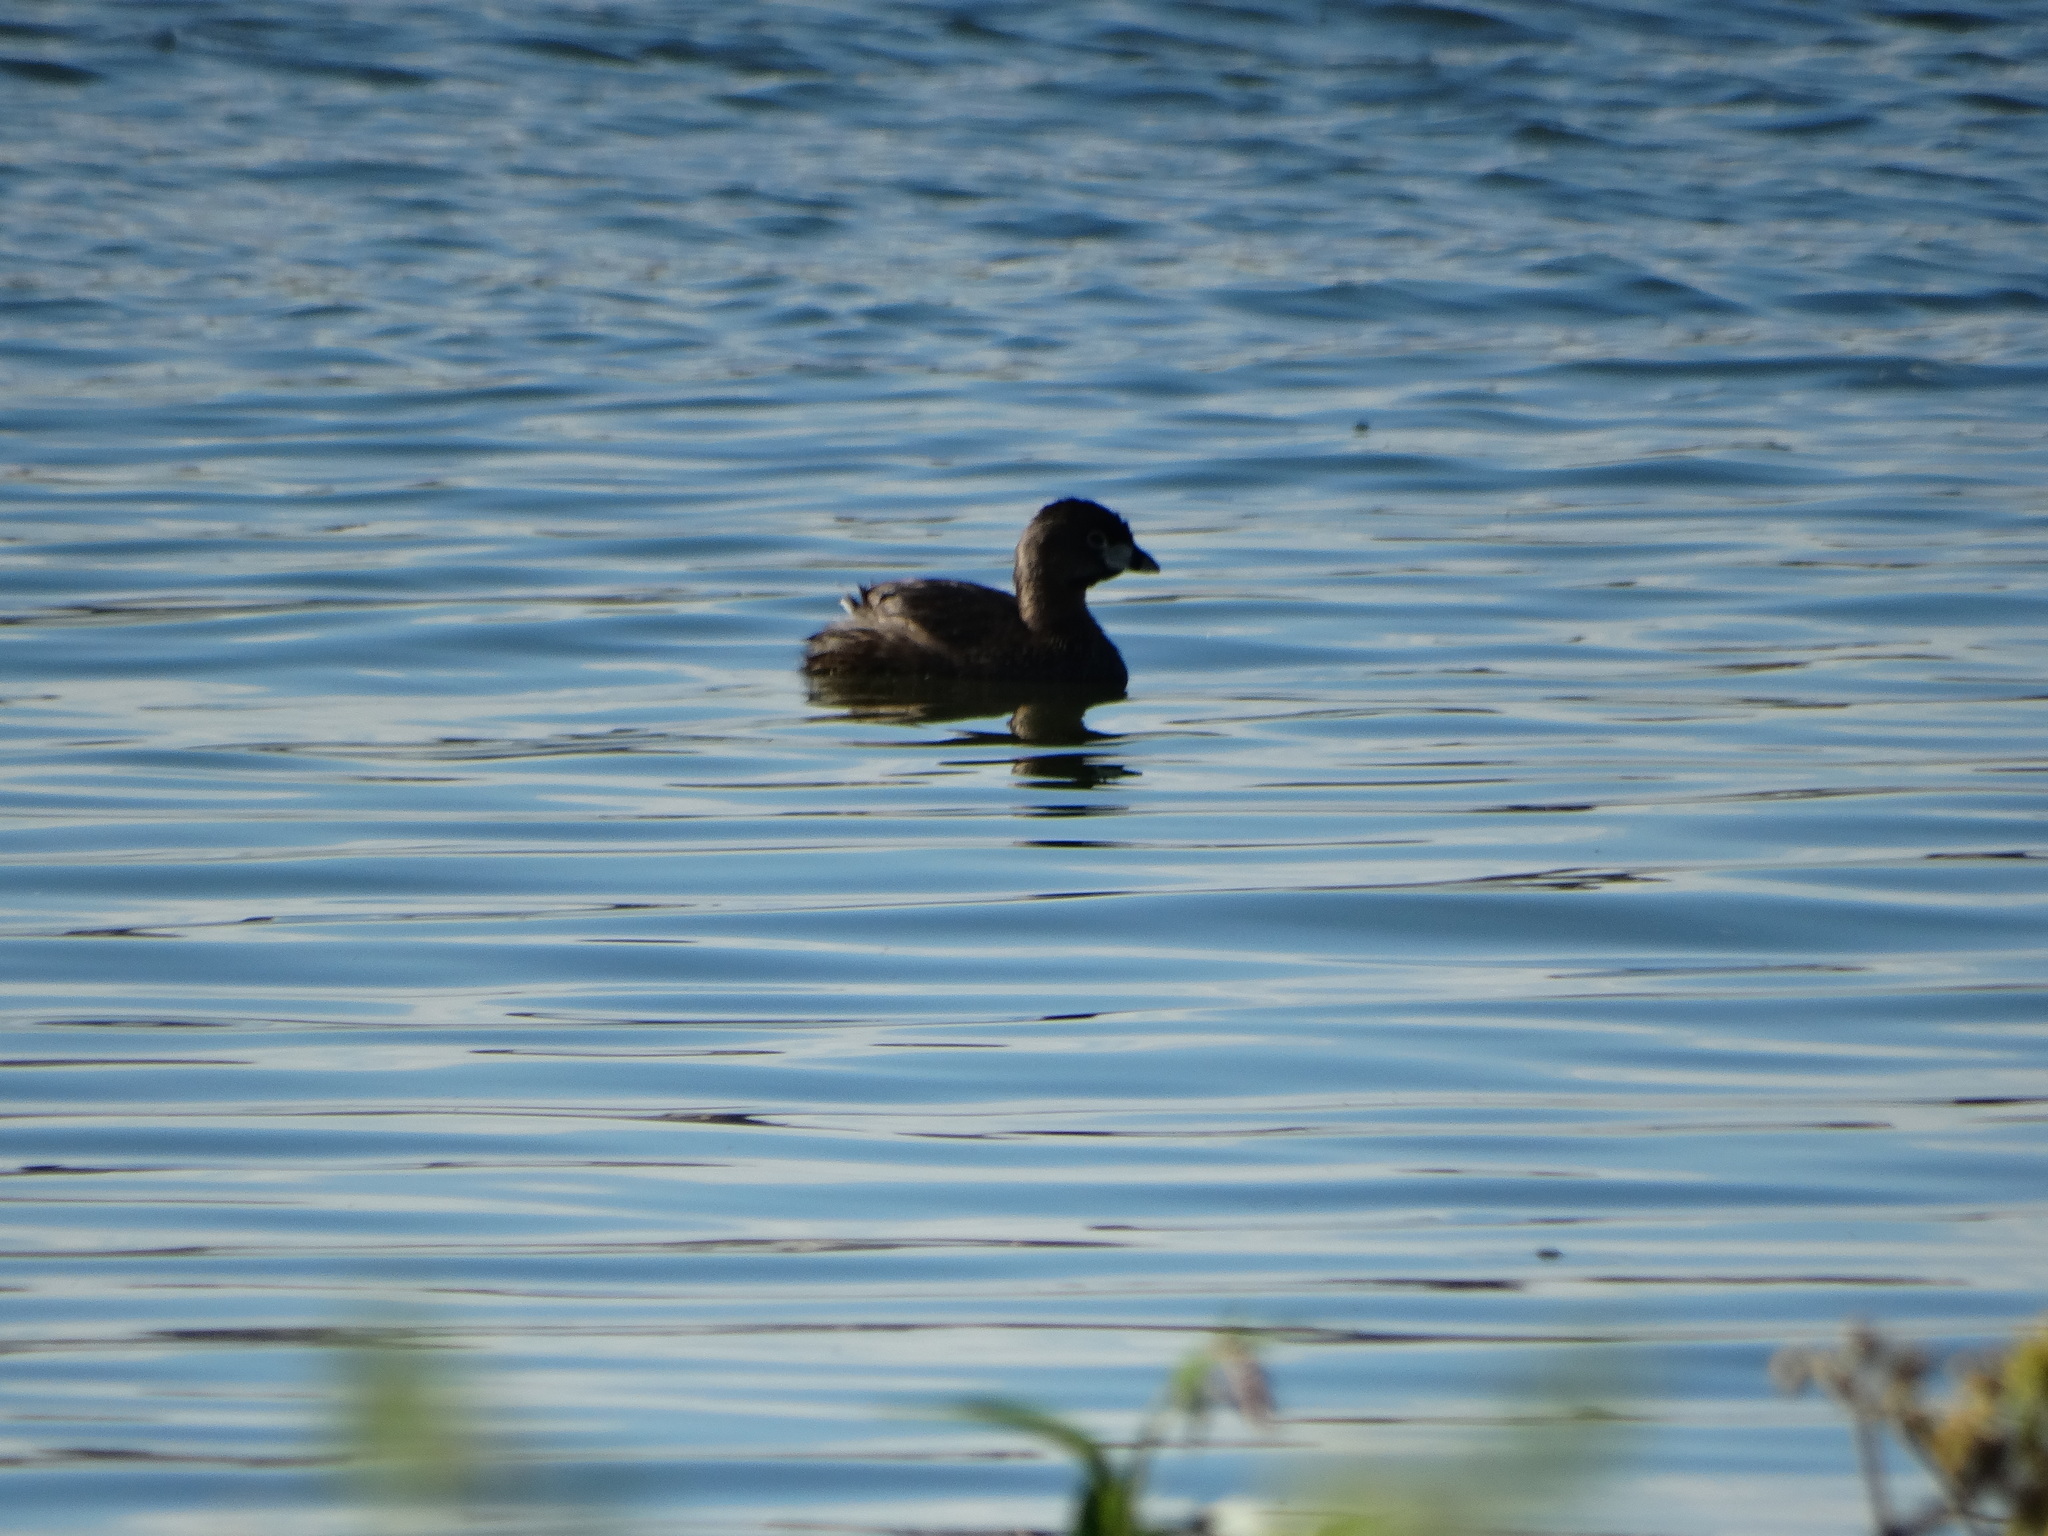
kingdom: Animalia
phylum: Chordata
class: Aves
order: Podicipediformes
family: Podicipedidae
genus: Podilymbus
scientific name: Podilymbus podiceps
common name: Pied-billed grebe
